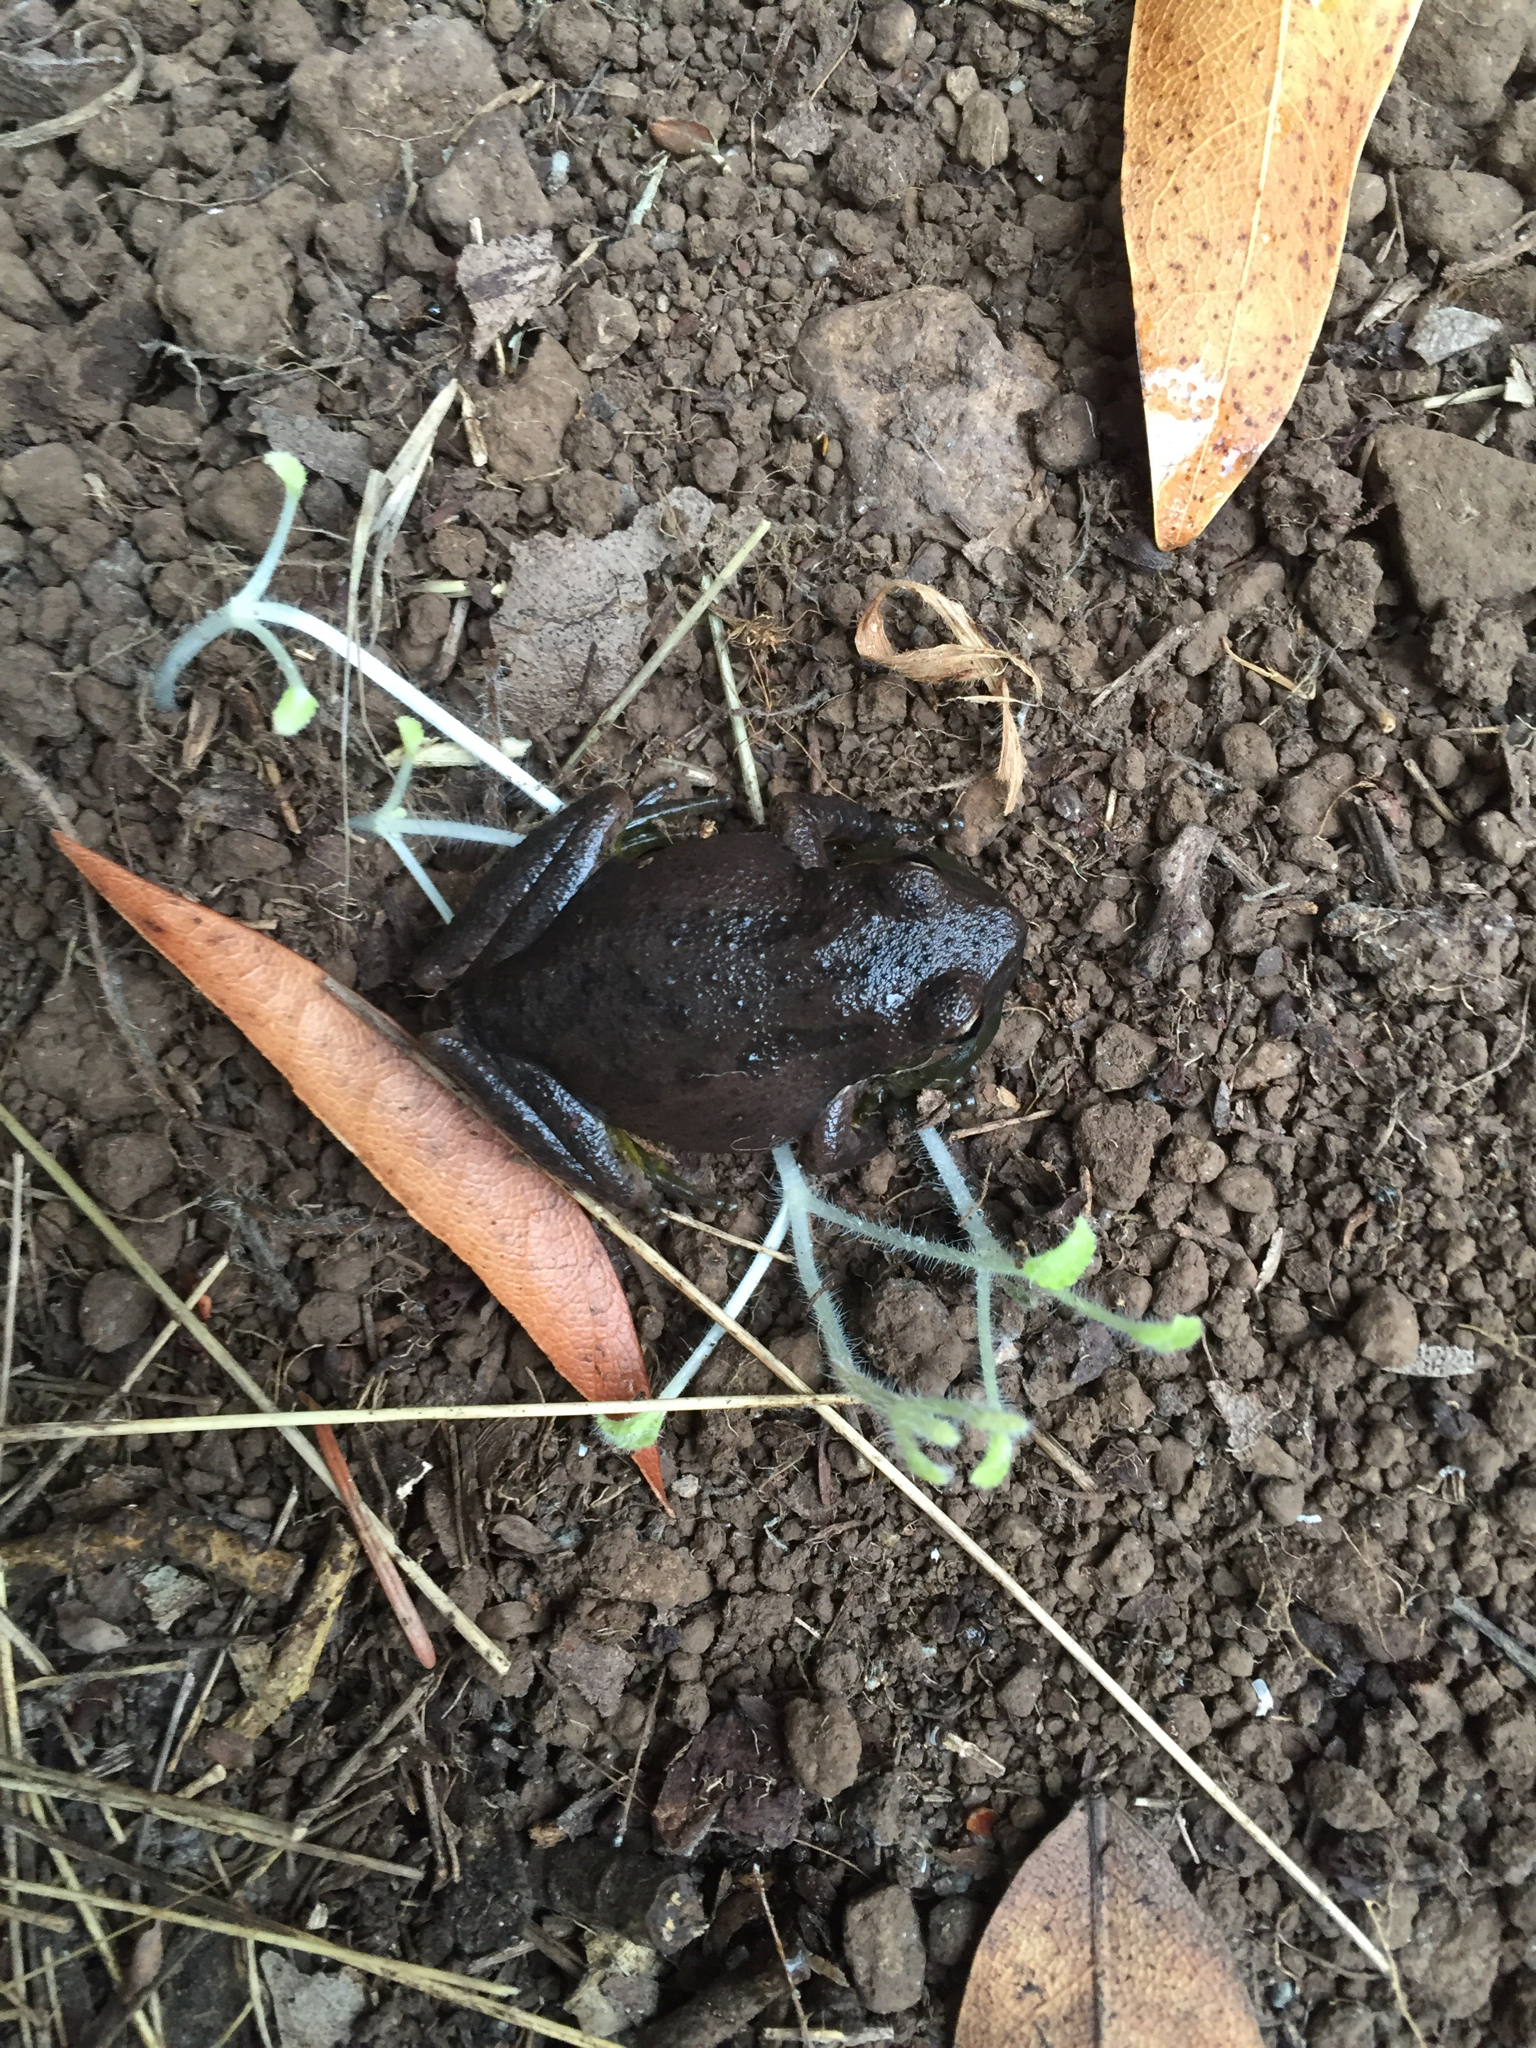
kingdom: Animalia
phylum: Chordata
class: Amphibia
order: Anura
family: Hylidae
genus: Pseudacris
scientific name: Pseudacris regilla
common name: Pacific chorus frog
